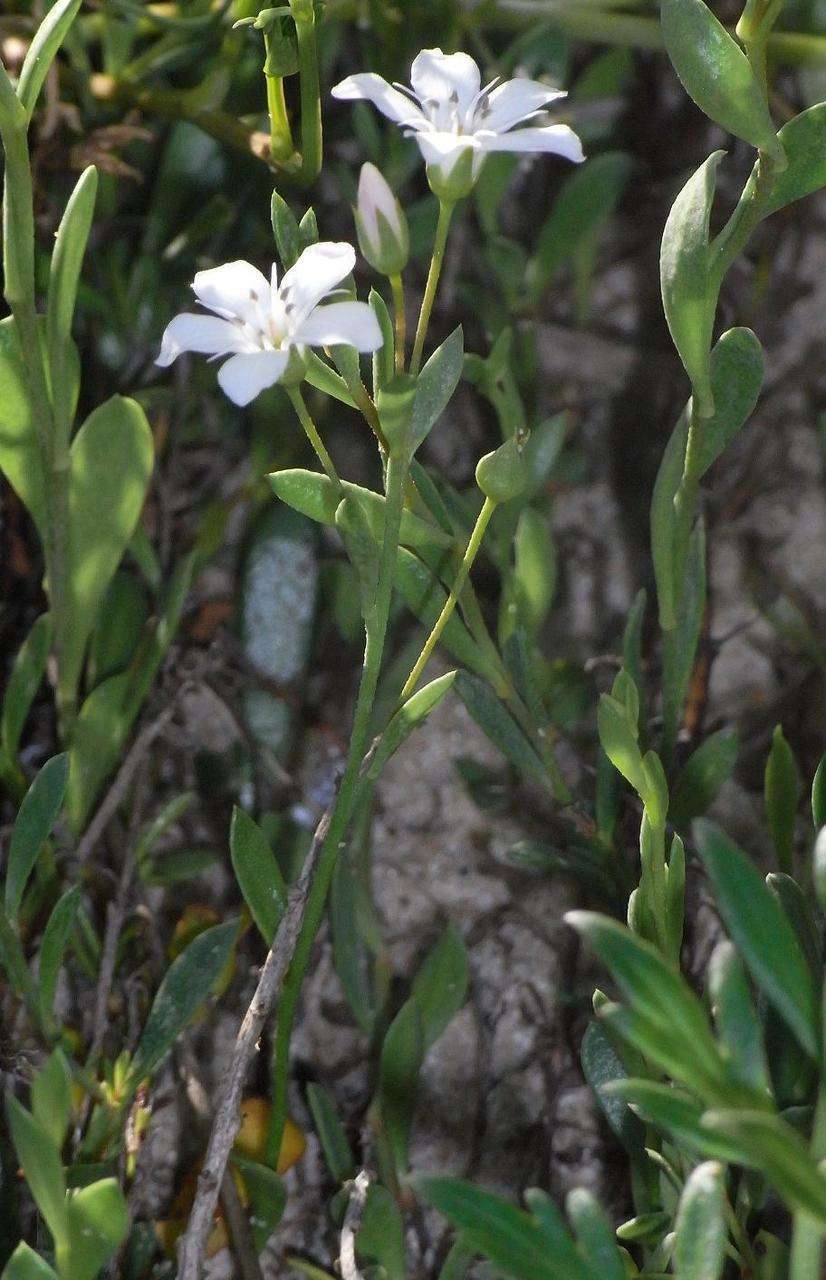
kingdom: Plantae
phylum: Tracheophyta
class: Magnoliopsida
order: Ericales
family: Primulaceae
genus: Samolus
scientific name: Samolus repens
